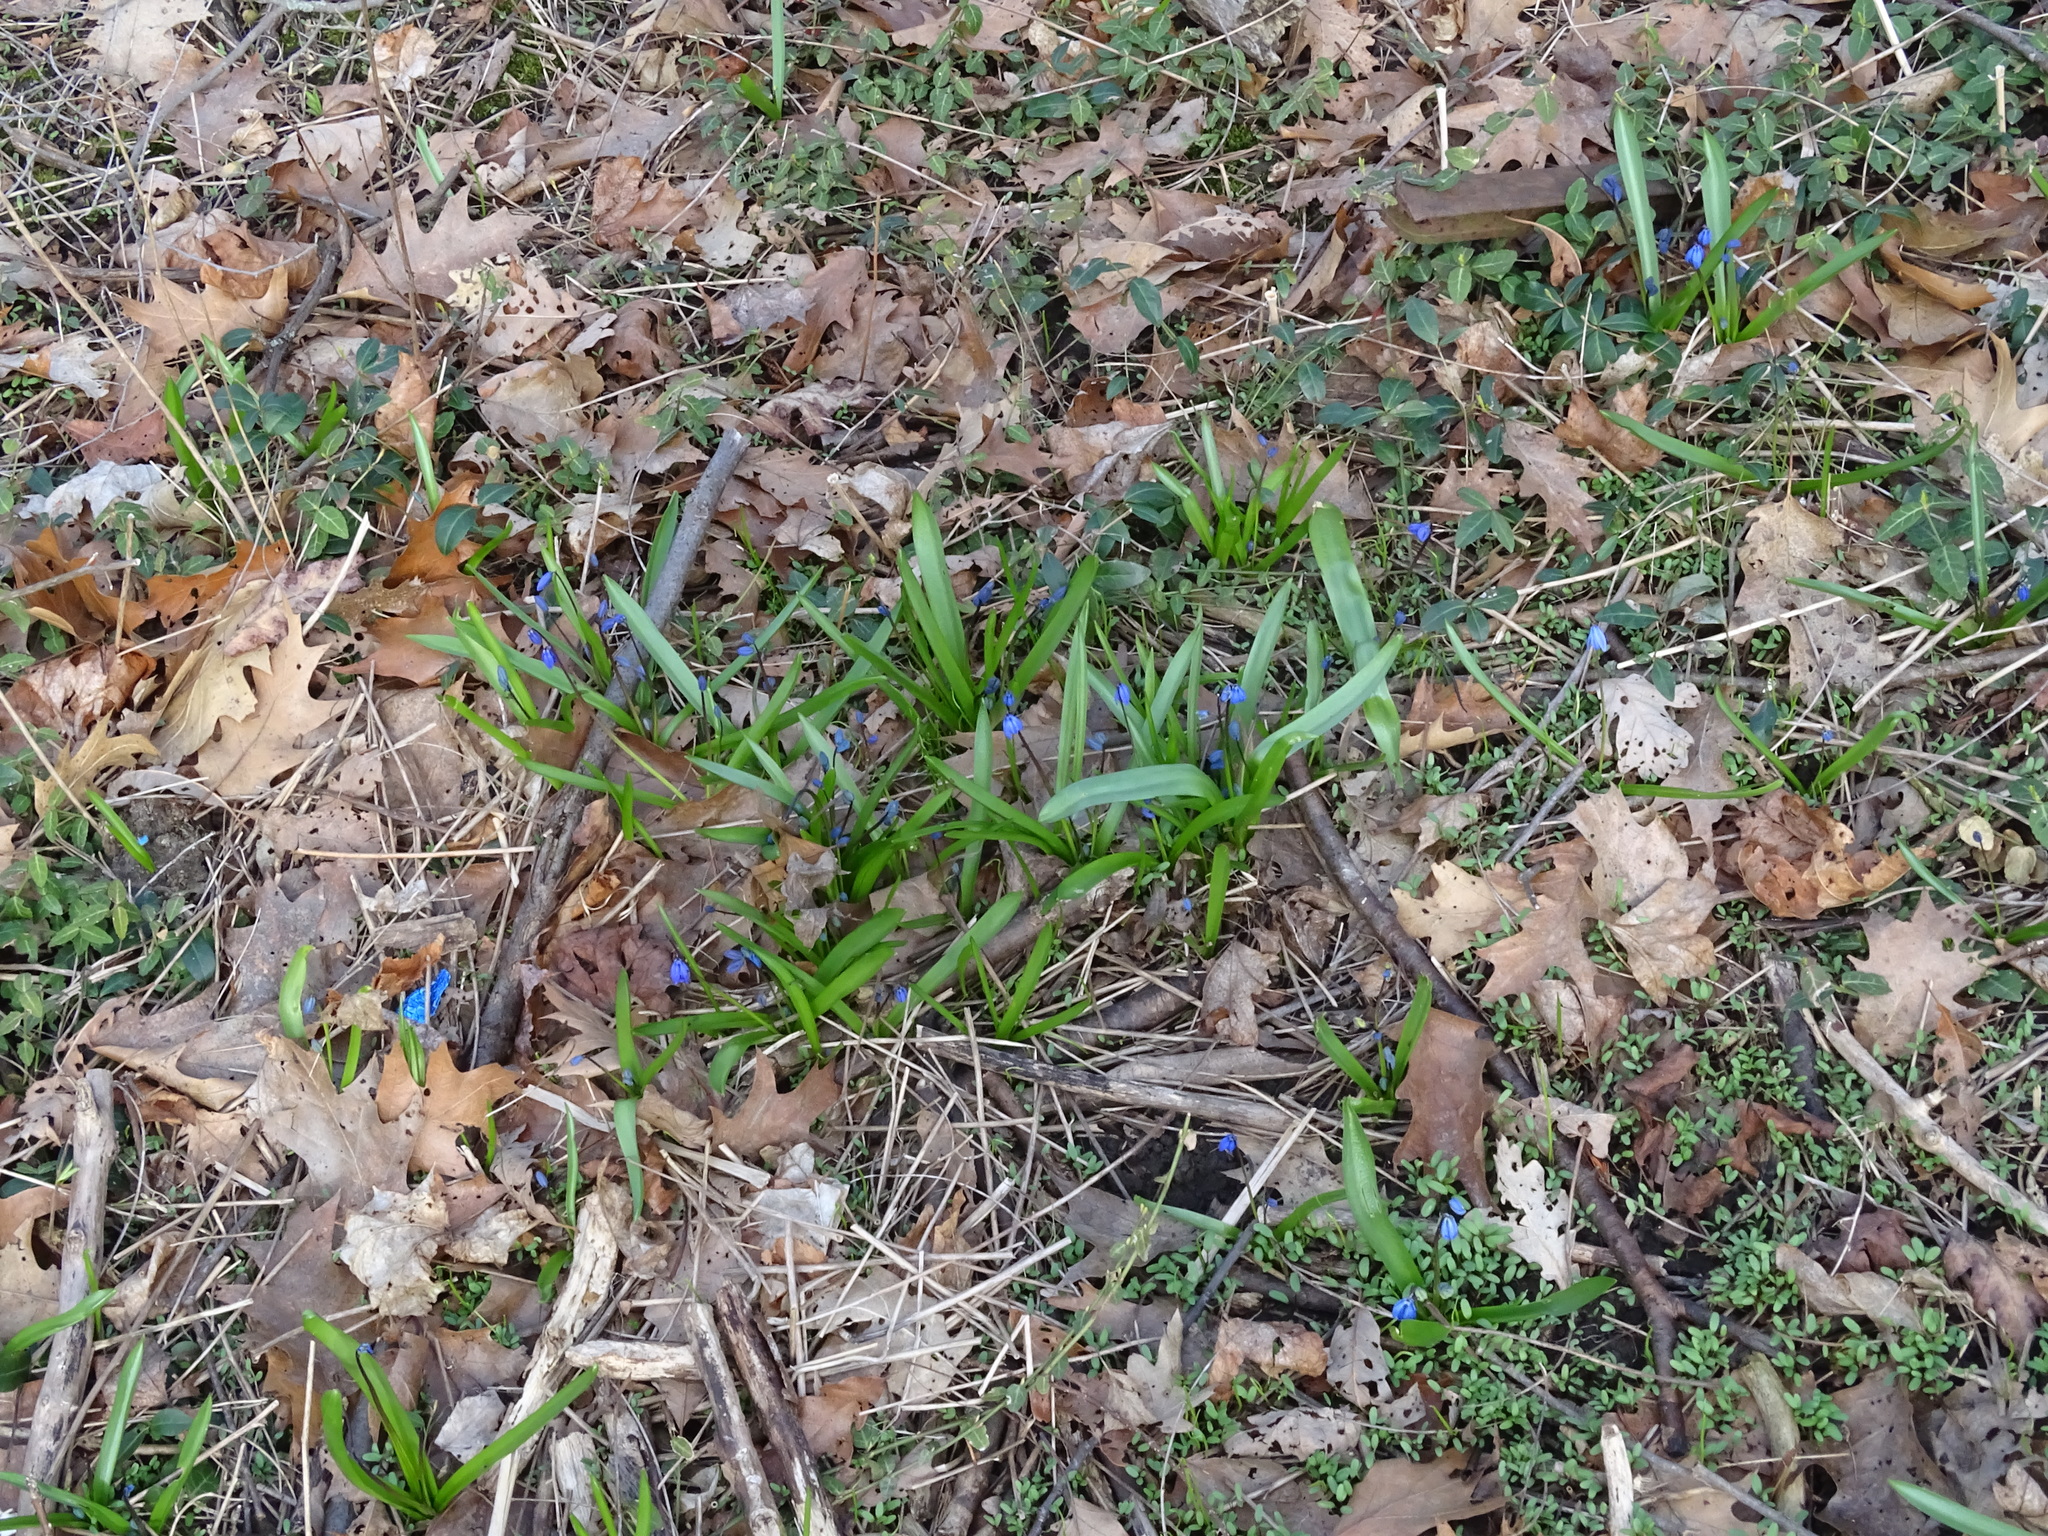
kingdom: Plantae
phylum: Tracheophyta
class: Liliopsida
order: Asparagales
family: Asparagaceae
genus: Scilla
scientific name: Scilla siberica
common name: Siberian squill
